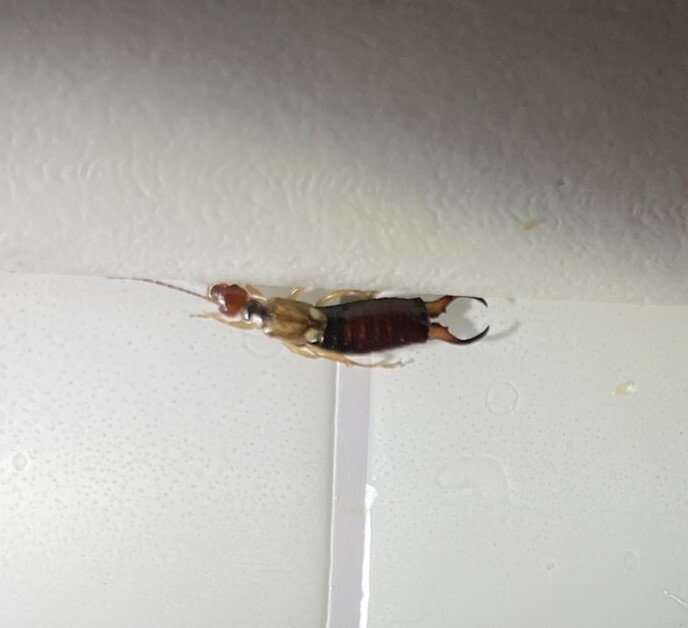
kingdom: Animalia
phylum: Arthropoda
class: Insecta
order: Dermaptera
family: Forficulidae
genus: Forficula
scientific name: Forficula
